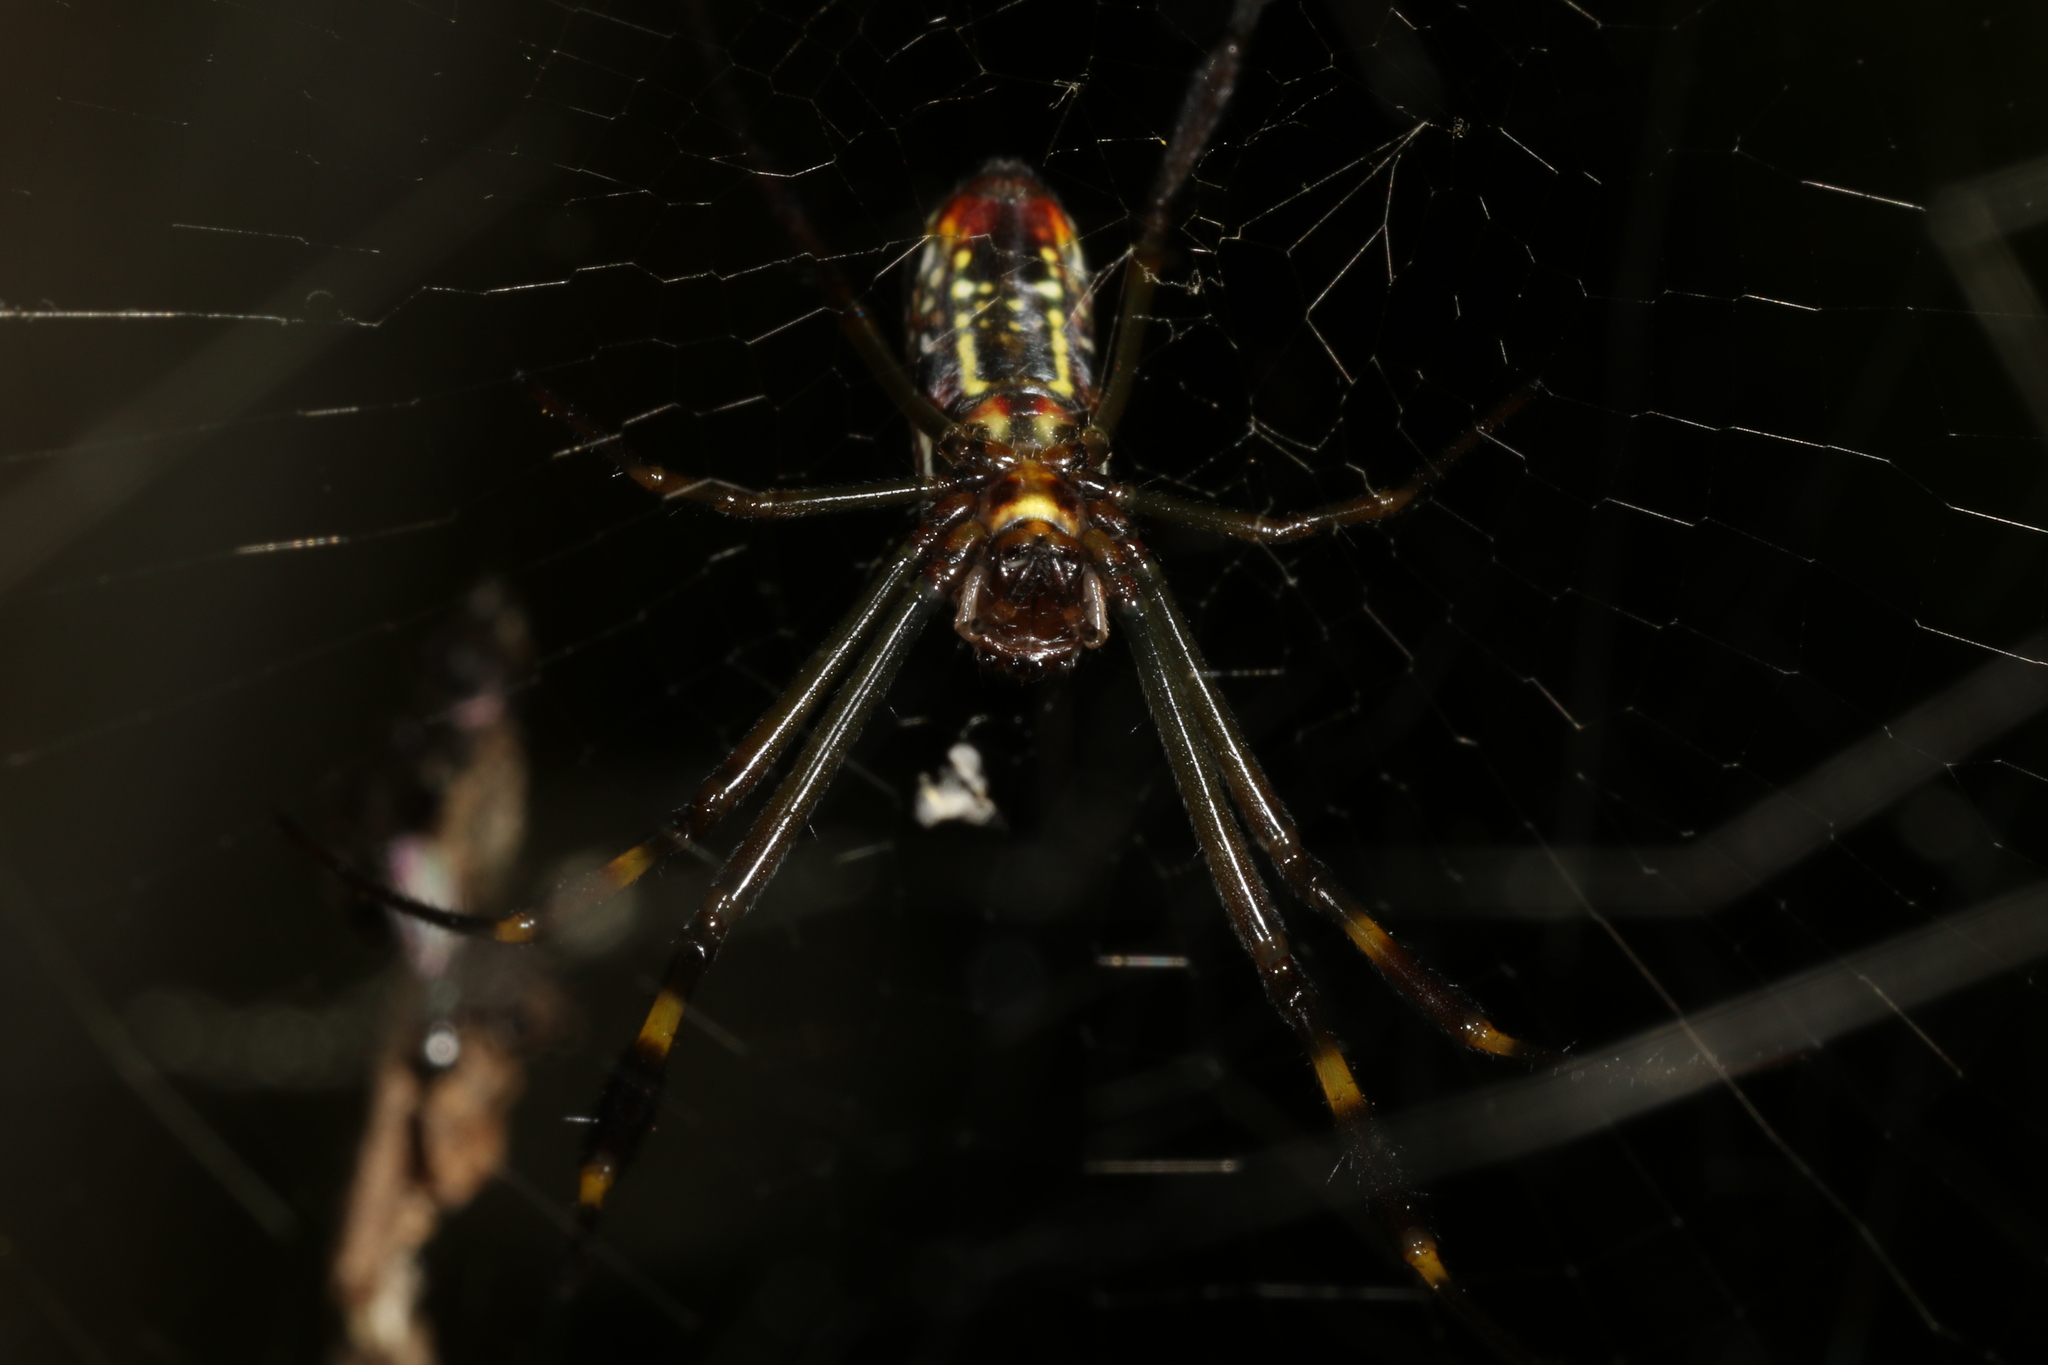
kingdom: Animalia
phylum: Arthropoda
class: Arachnida
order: Araneae
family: Araneidae
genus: Trichonephila
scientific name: Trichonephila clavipes
